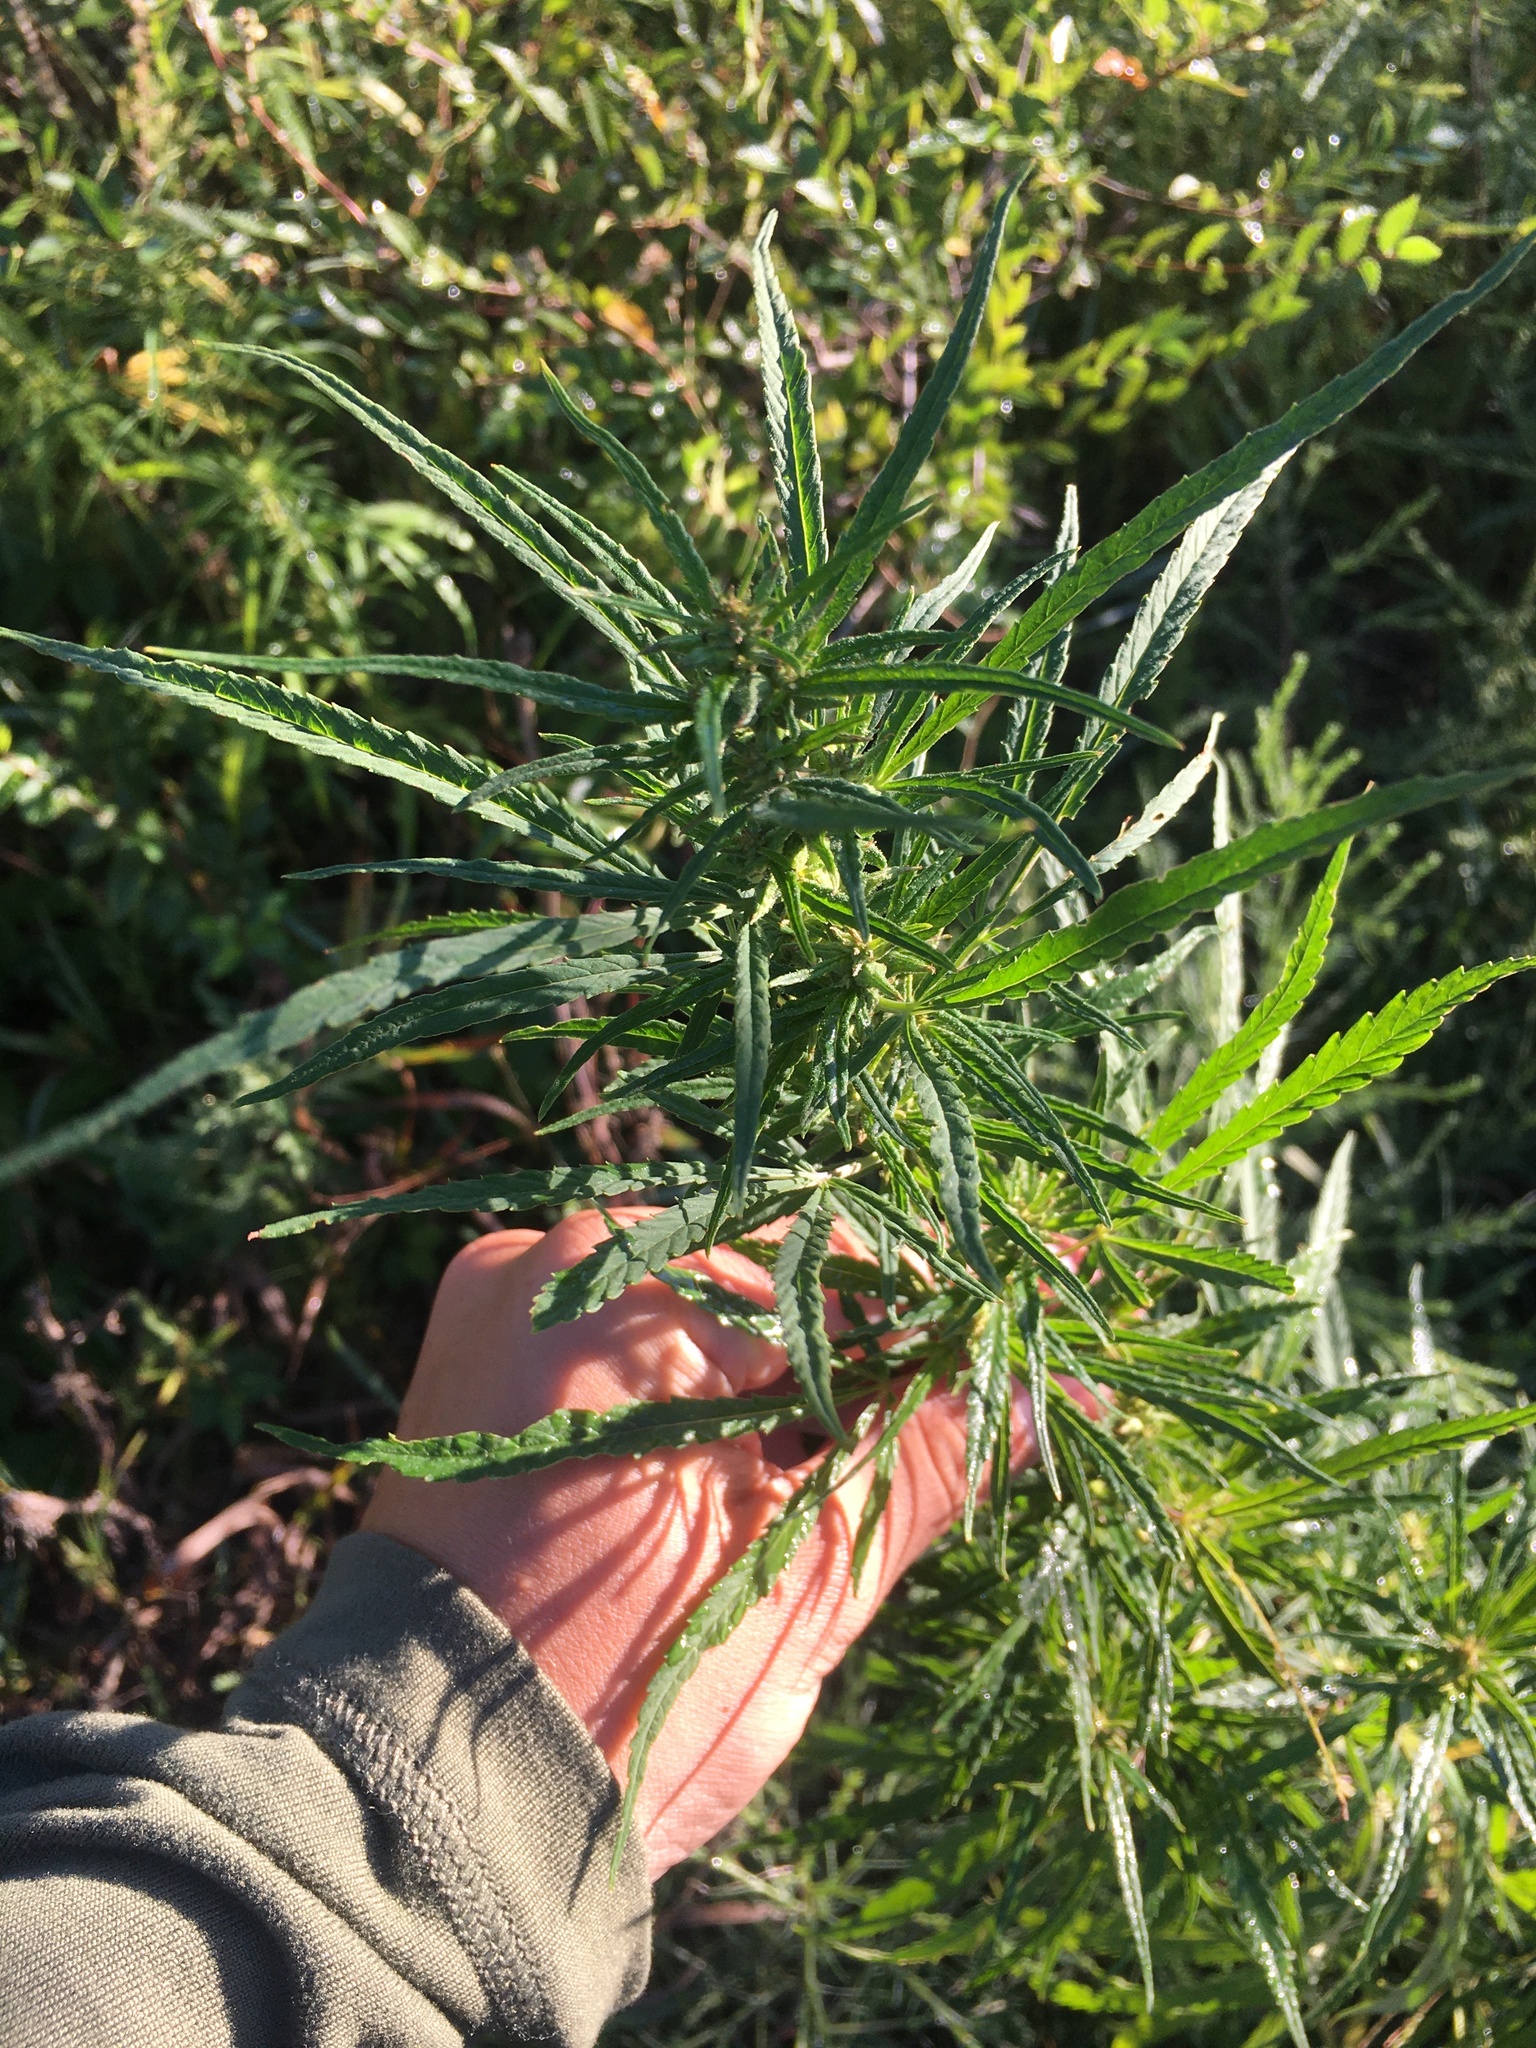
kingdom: Plantae
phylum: Tracheophyta
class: Magnoliopsida
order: Rosales
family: Cannabaceae
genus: Cannabis
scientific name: Cannabis sativa
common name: Hemp
